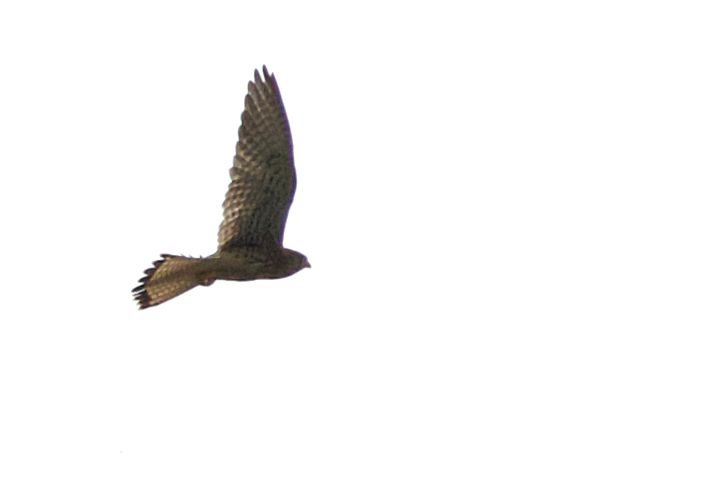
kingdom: Animalia
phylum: Chordata
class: Aves
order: Falconiformes
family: Falconidae
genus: Falco
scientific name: Falco tinnunculus
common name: Common kestrel
